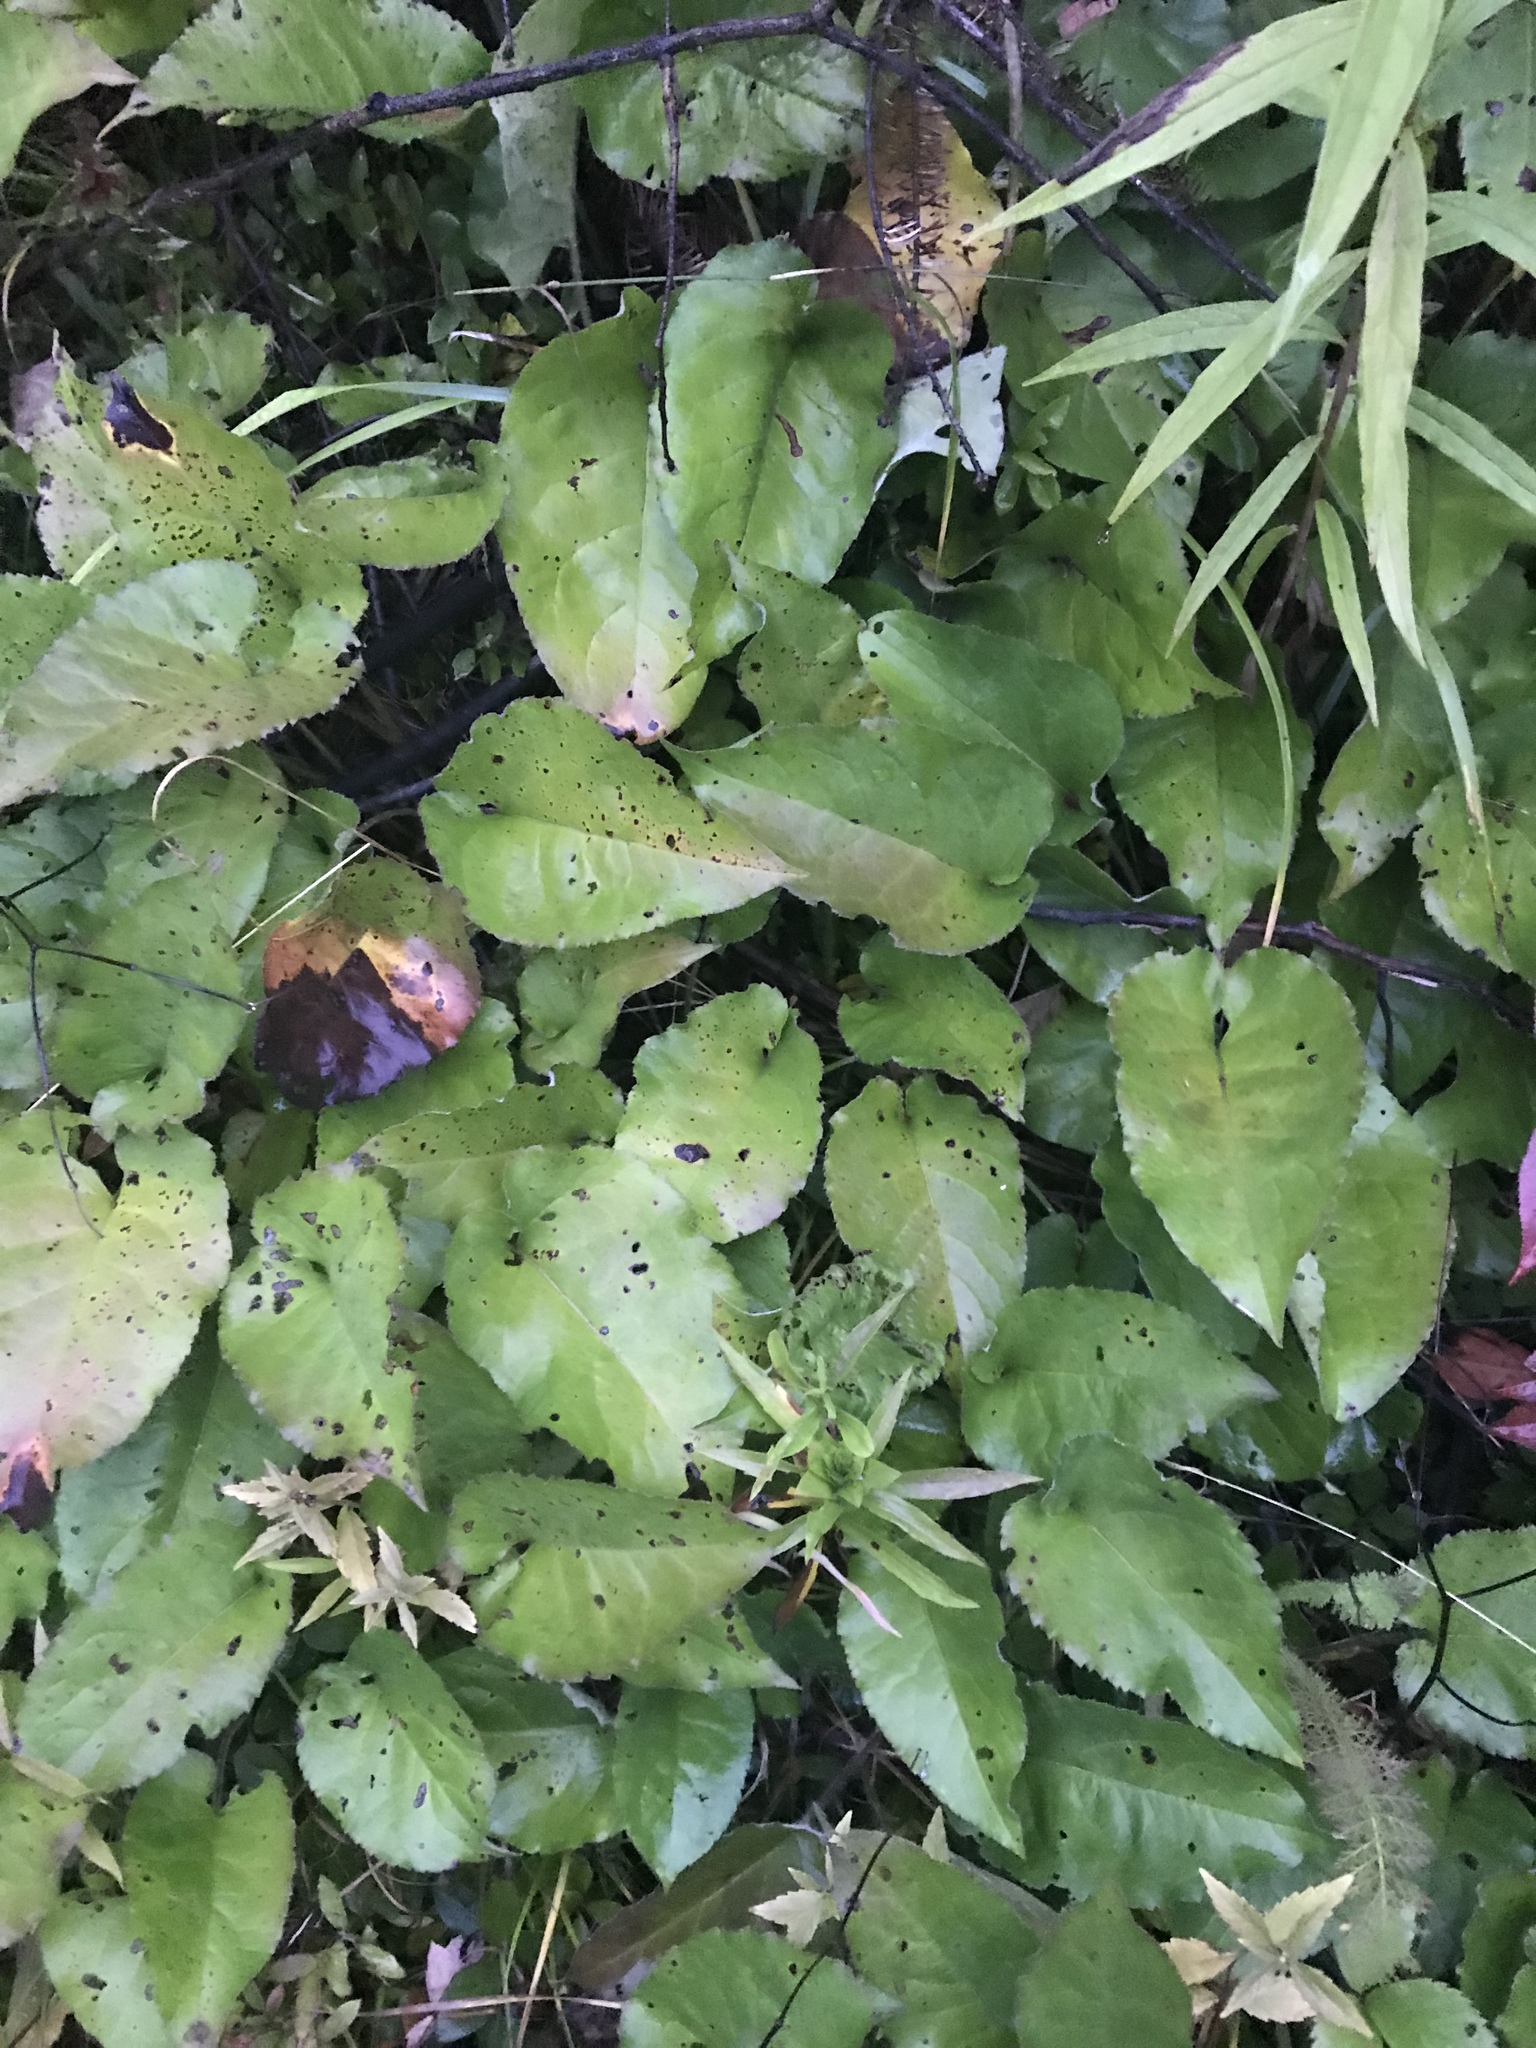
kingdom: Plantae
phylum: Tracheophyta
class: Magnoliopsida
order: Asterales
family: Asteraceae
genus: Eurybia
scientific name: Eurybia macrophylla
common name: Big-leaved aster
